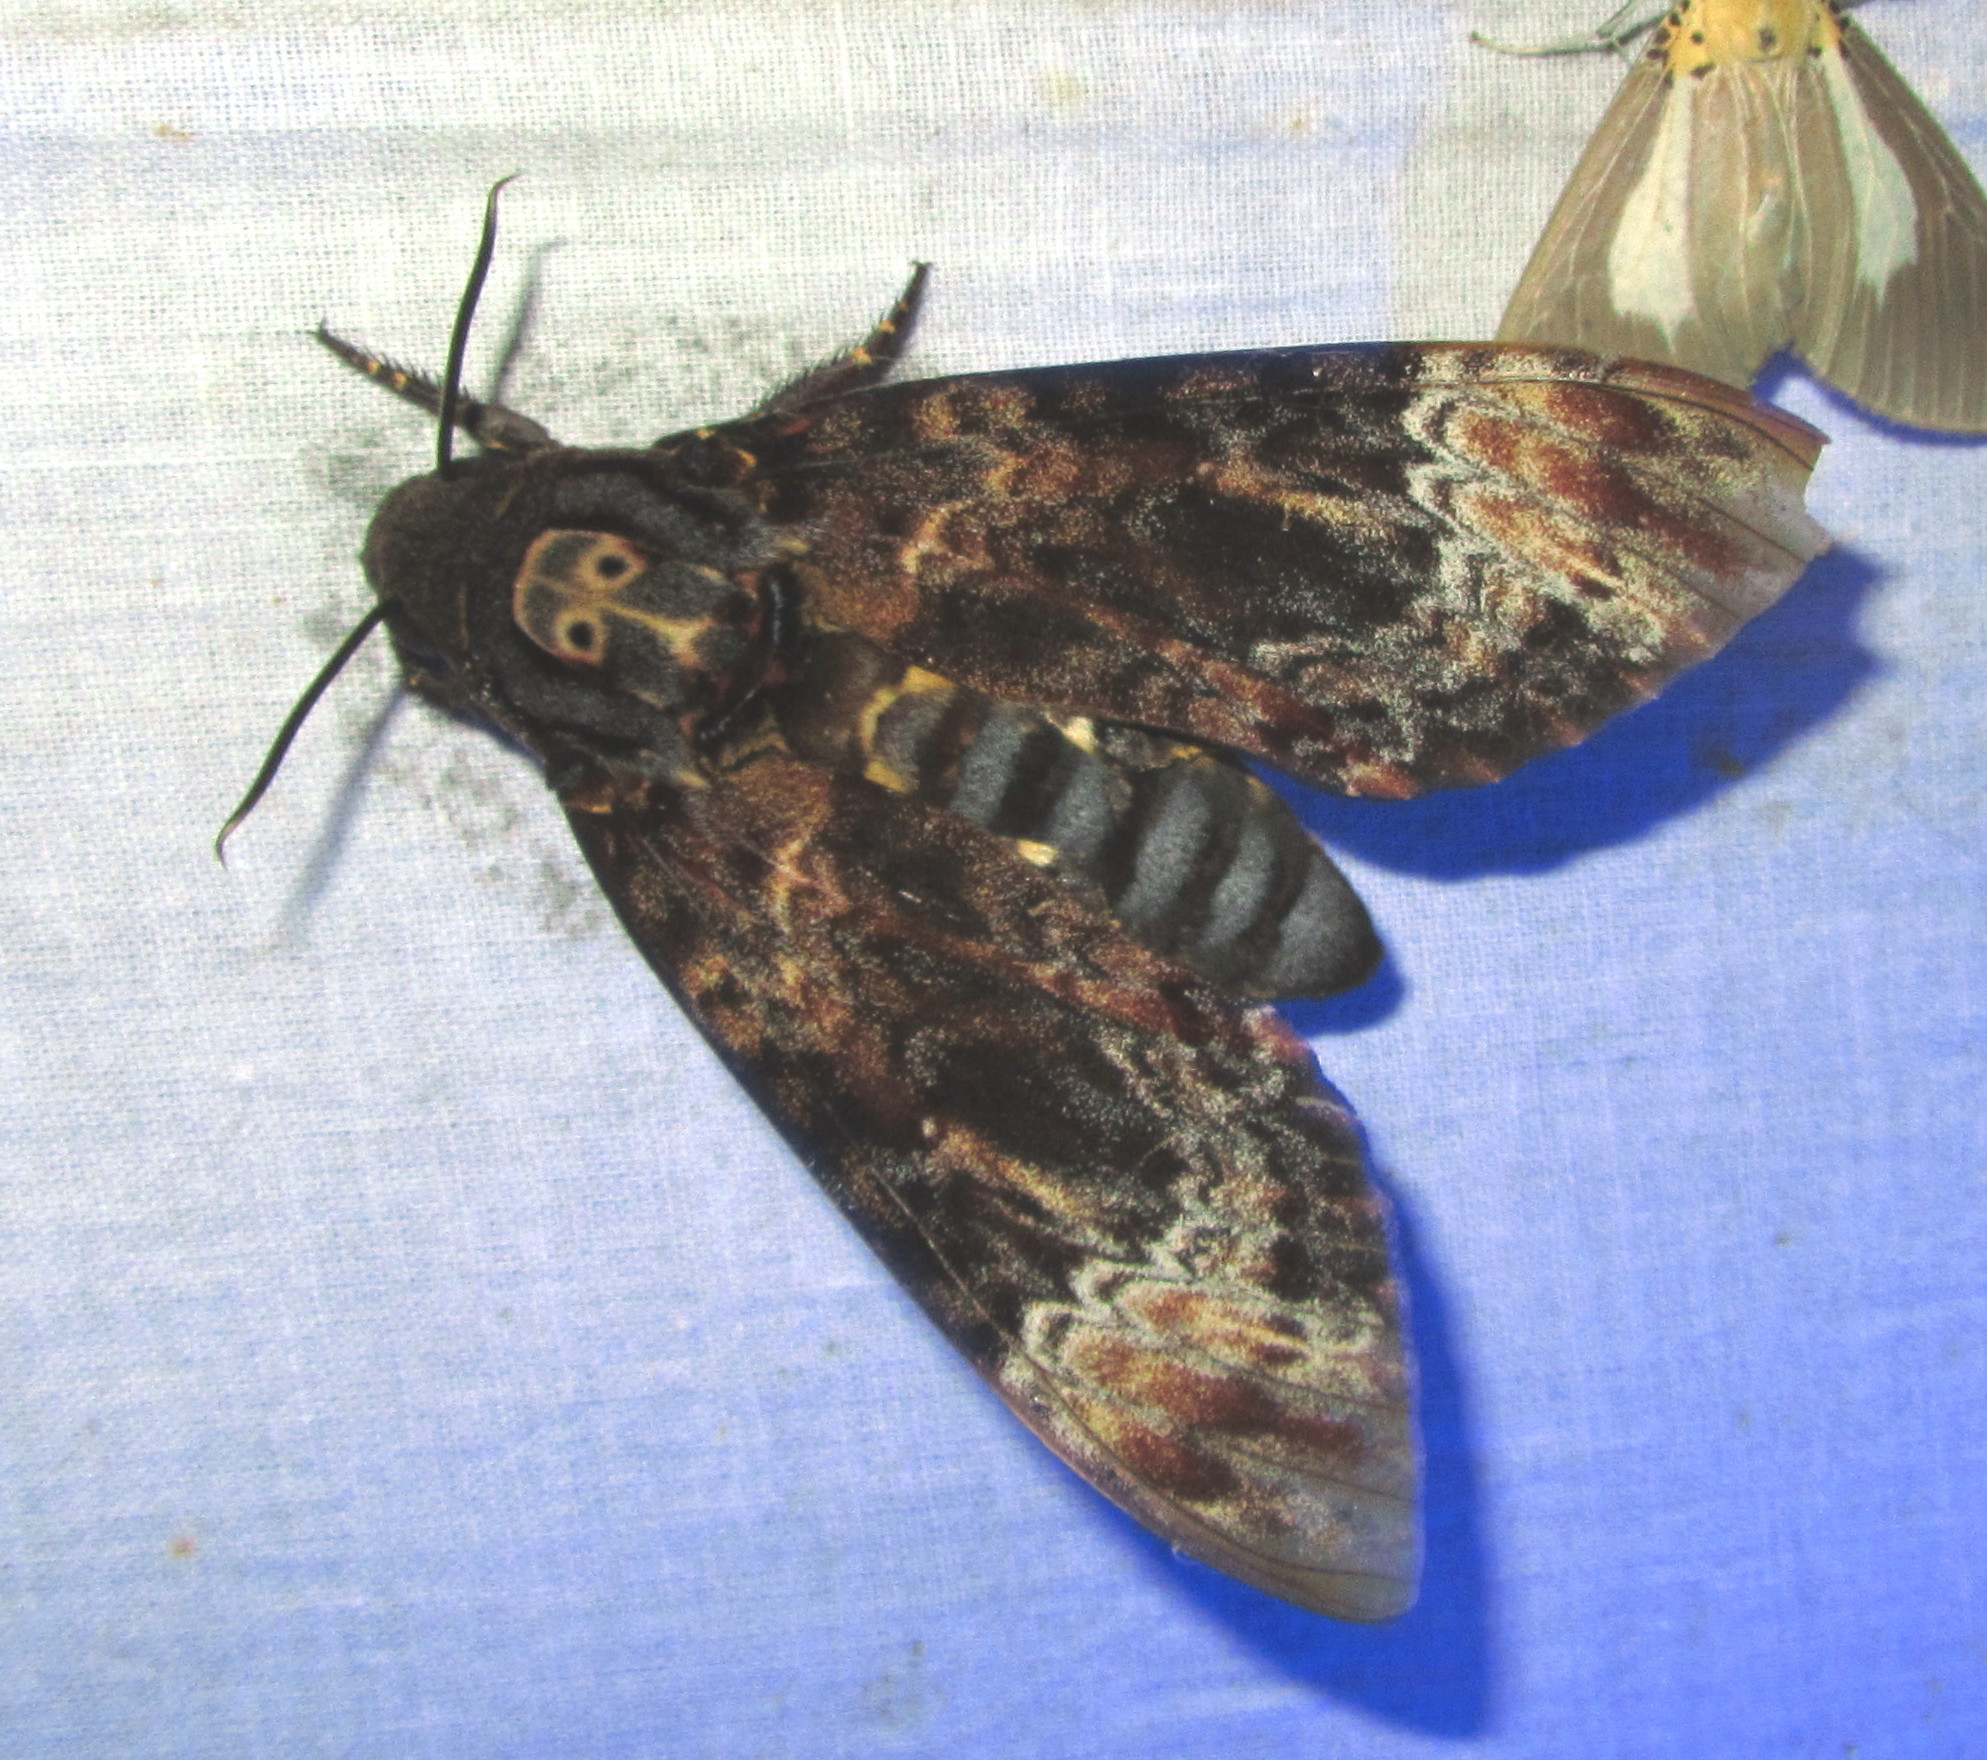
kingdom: Animalia
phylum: Arthropoda
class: Insecta
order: Lepidoptera
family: Sphingidae
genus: Acherontia
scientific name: Acherontia lachesis
